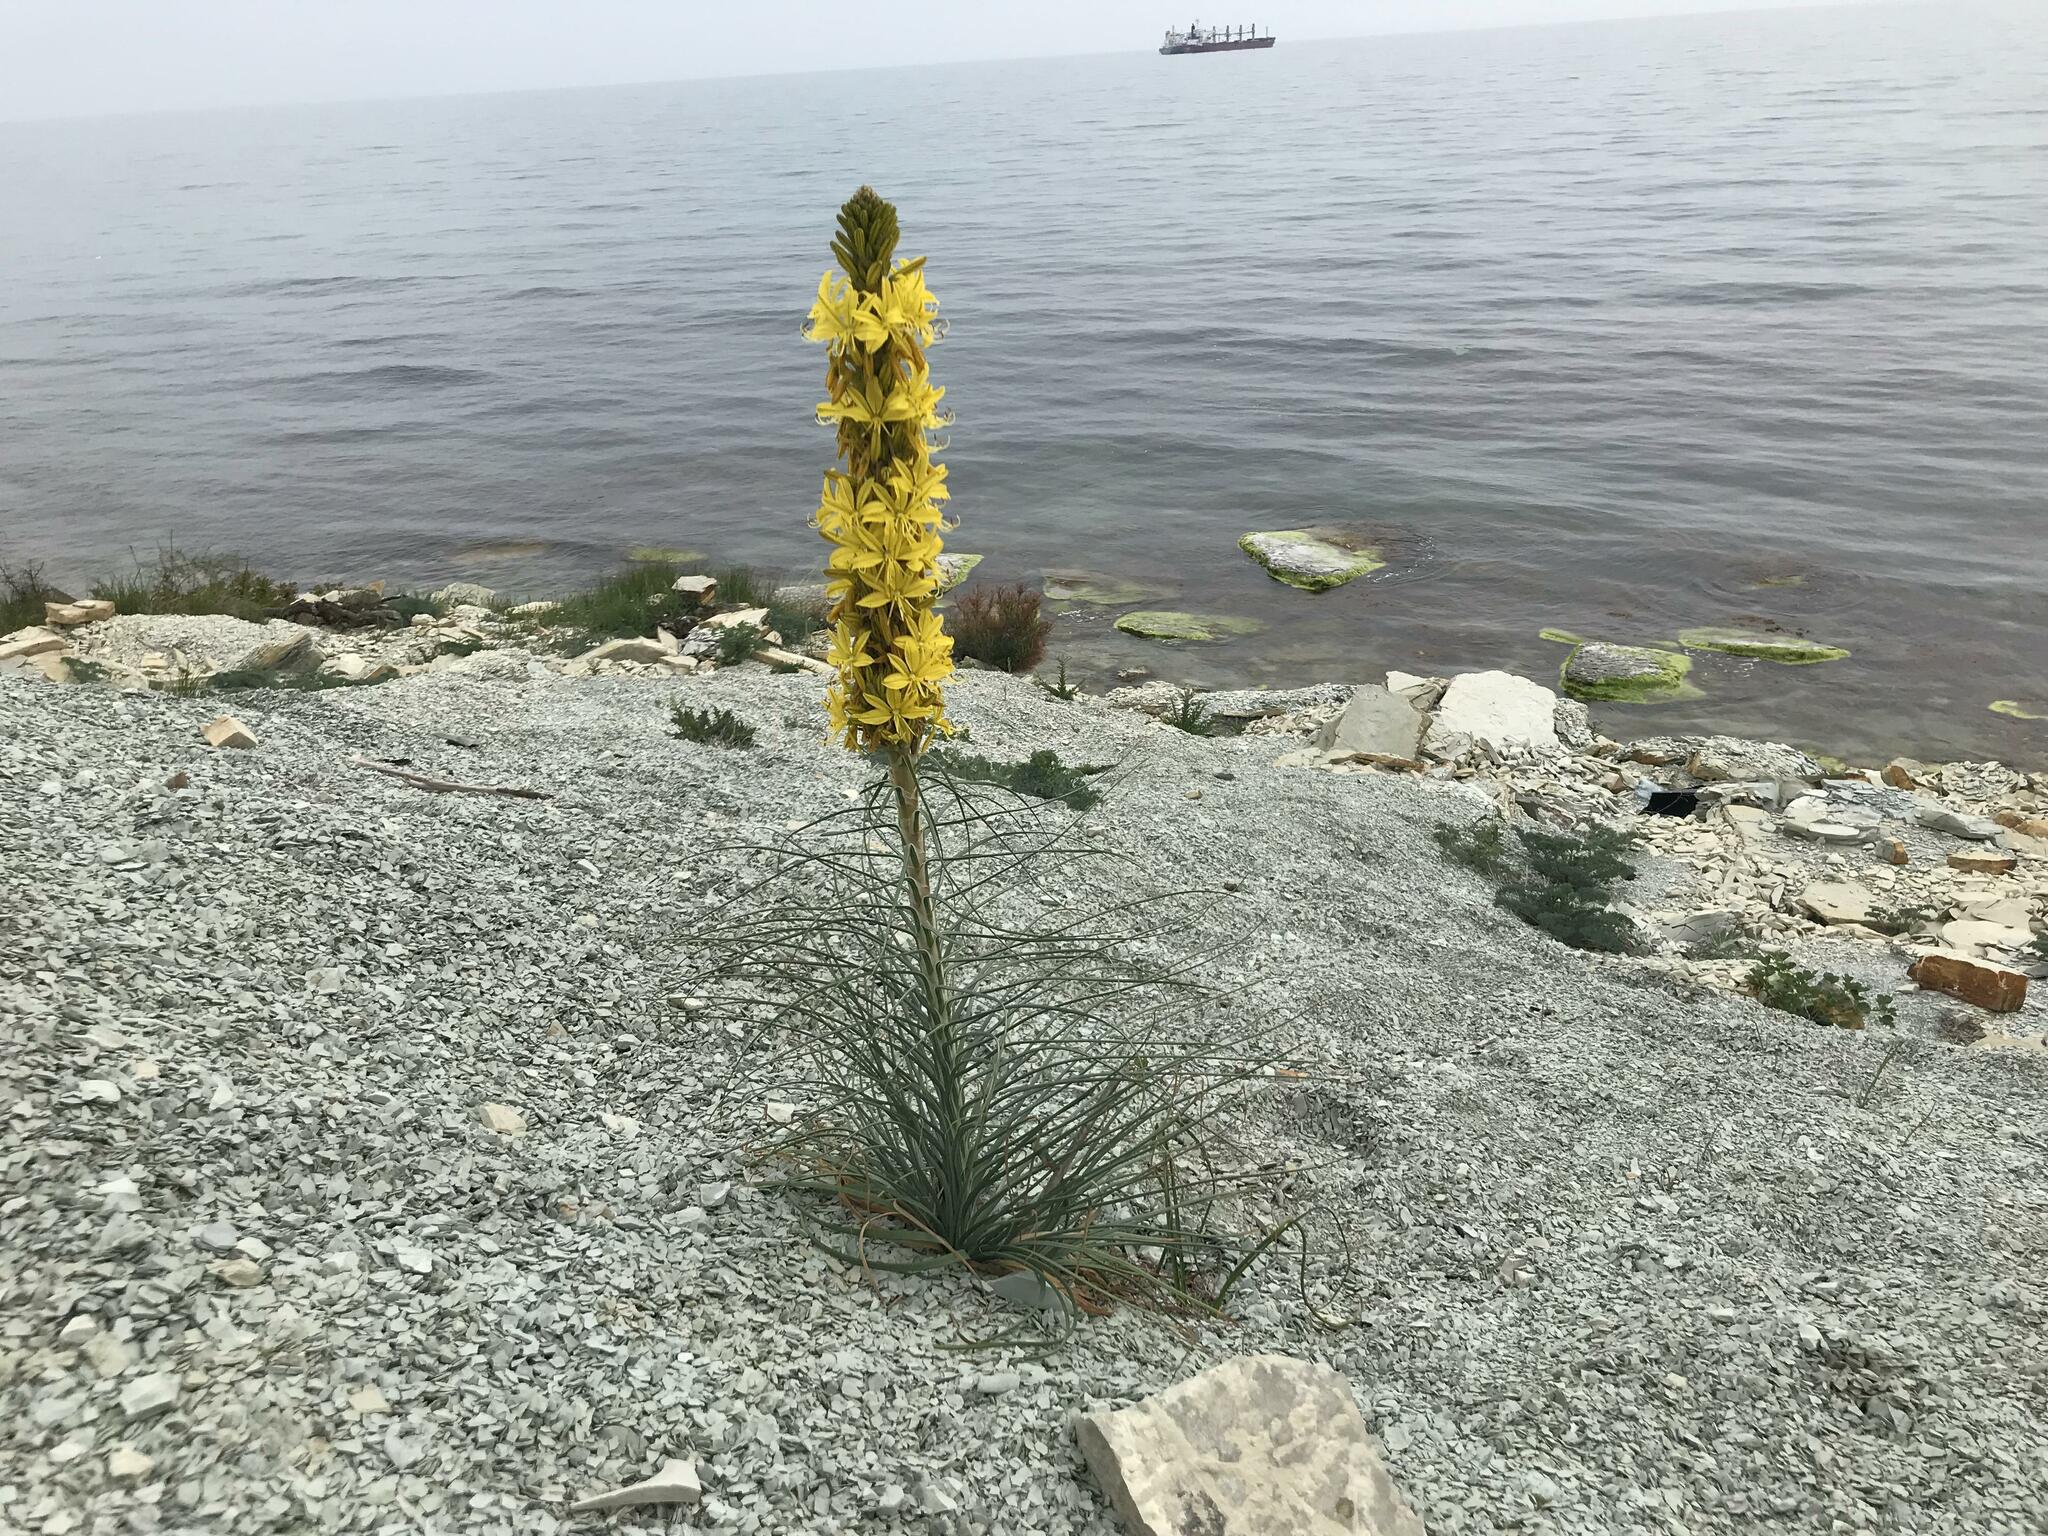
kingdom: Plantae
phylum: Tracheophyta
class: Liliopsida
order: Asparagales
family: Asphodelaceae
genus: Asphodeline
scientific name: Asphodeline lutea
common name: Yellow asphodel
